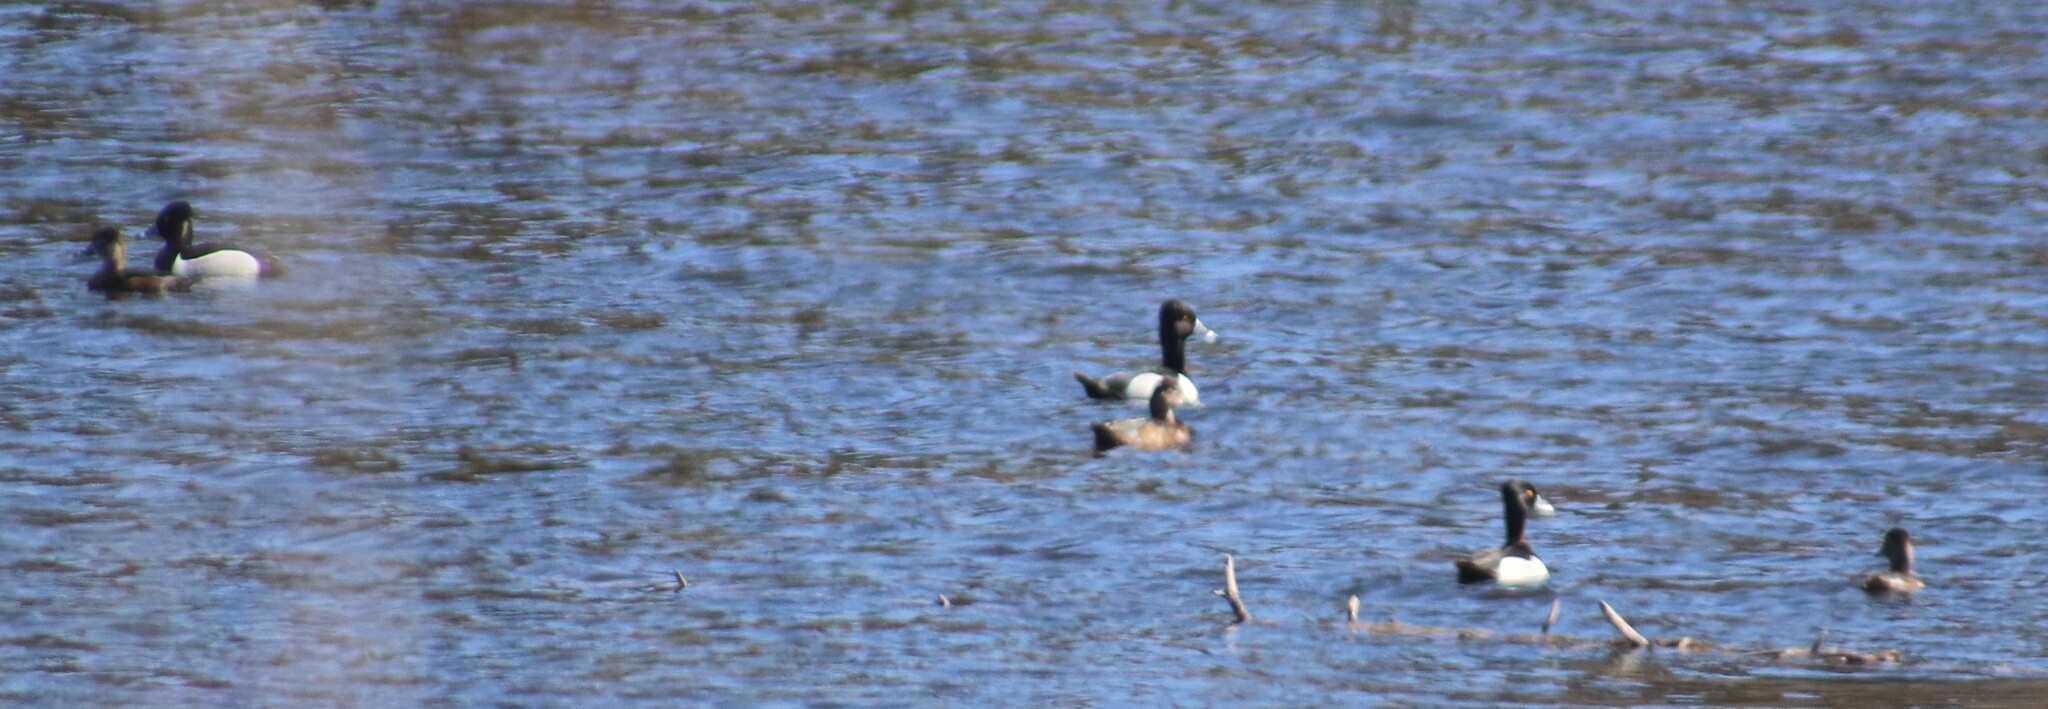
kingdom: Animalia
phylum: Chordata
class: Aves
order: Anseriformes
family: Anatidae
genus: Aythya
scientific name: Aythya collaris
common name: Ring-necked duck
